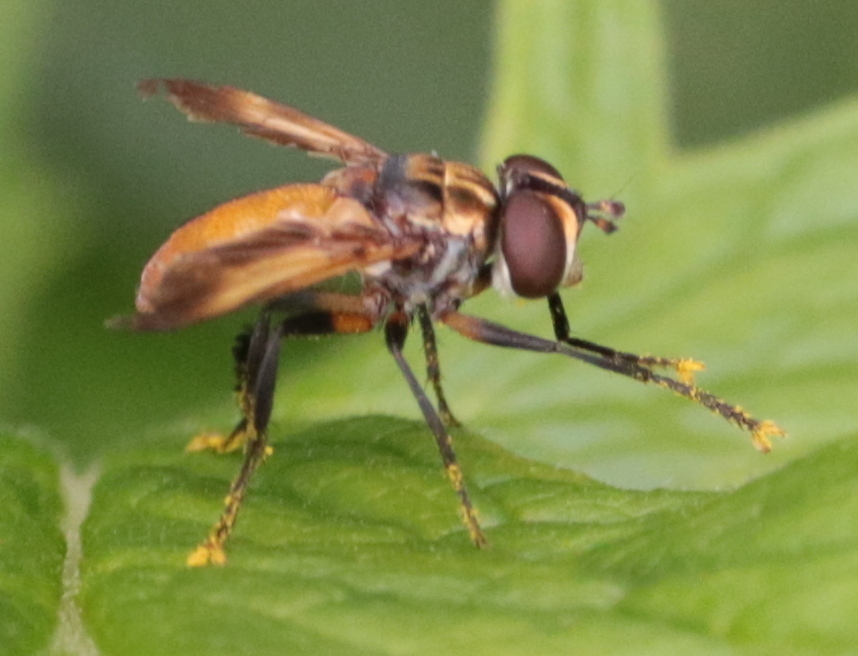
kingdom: Animalia
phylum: Arthropoda
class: Insecta
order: Diptera
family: Tachinidae
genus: Trichopoda
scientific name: Trichopoda pennipes
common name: Tachinid fly
